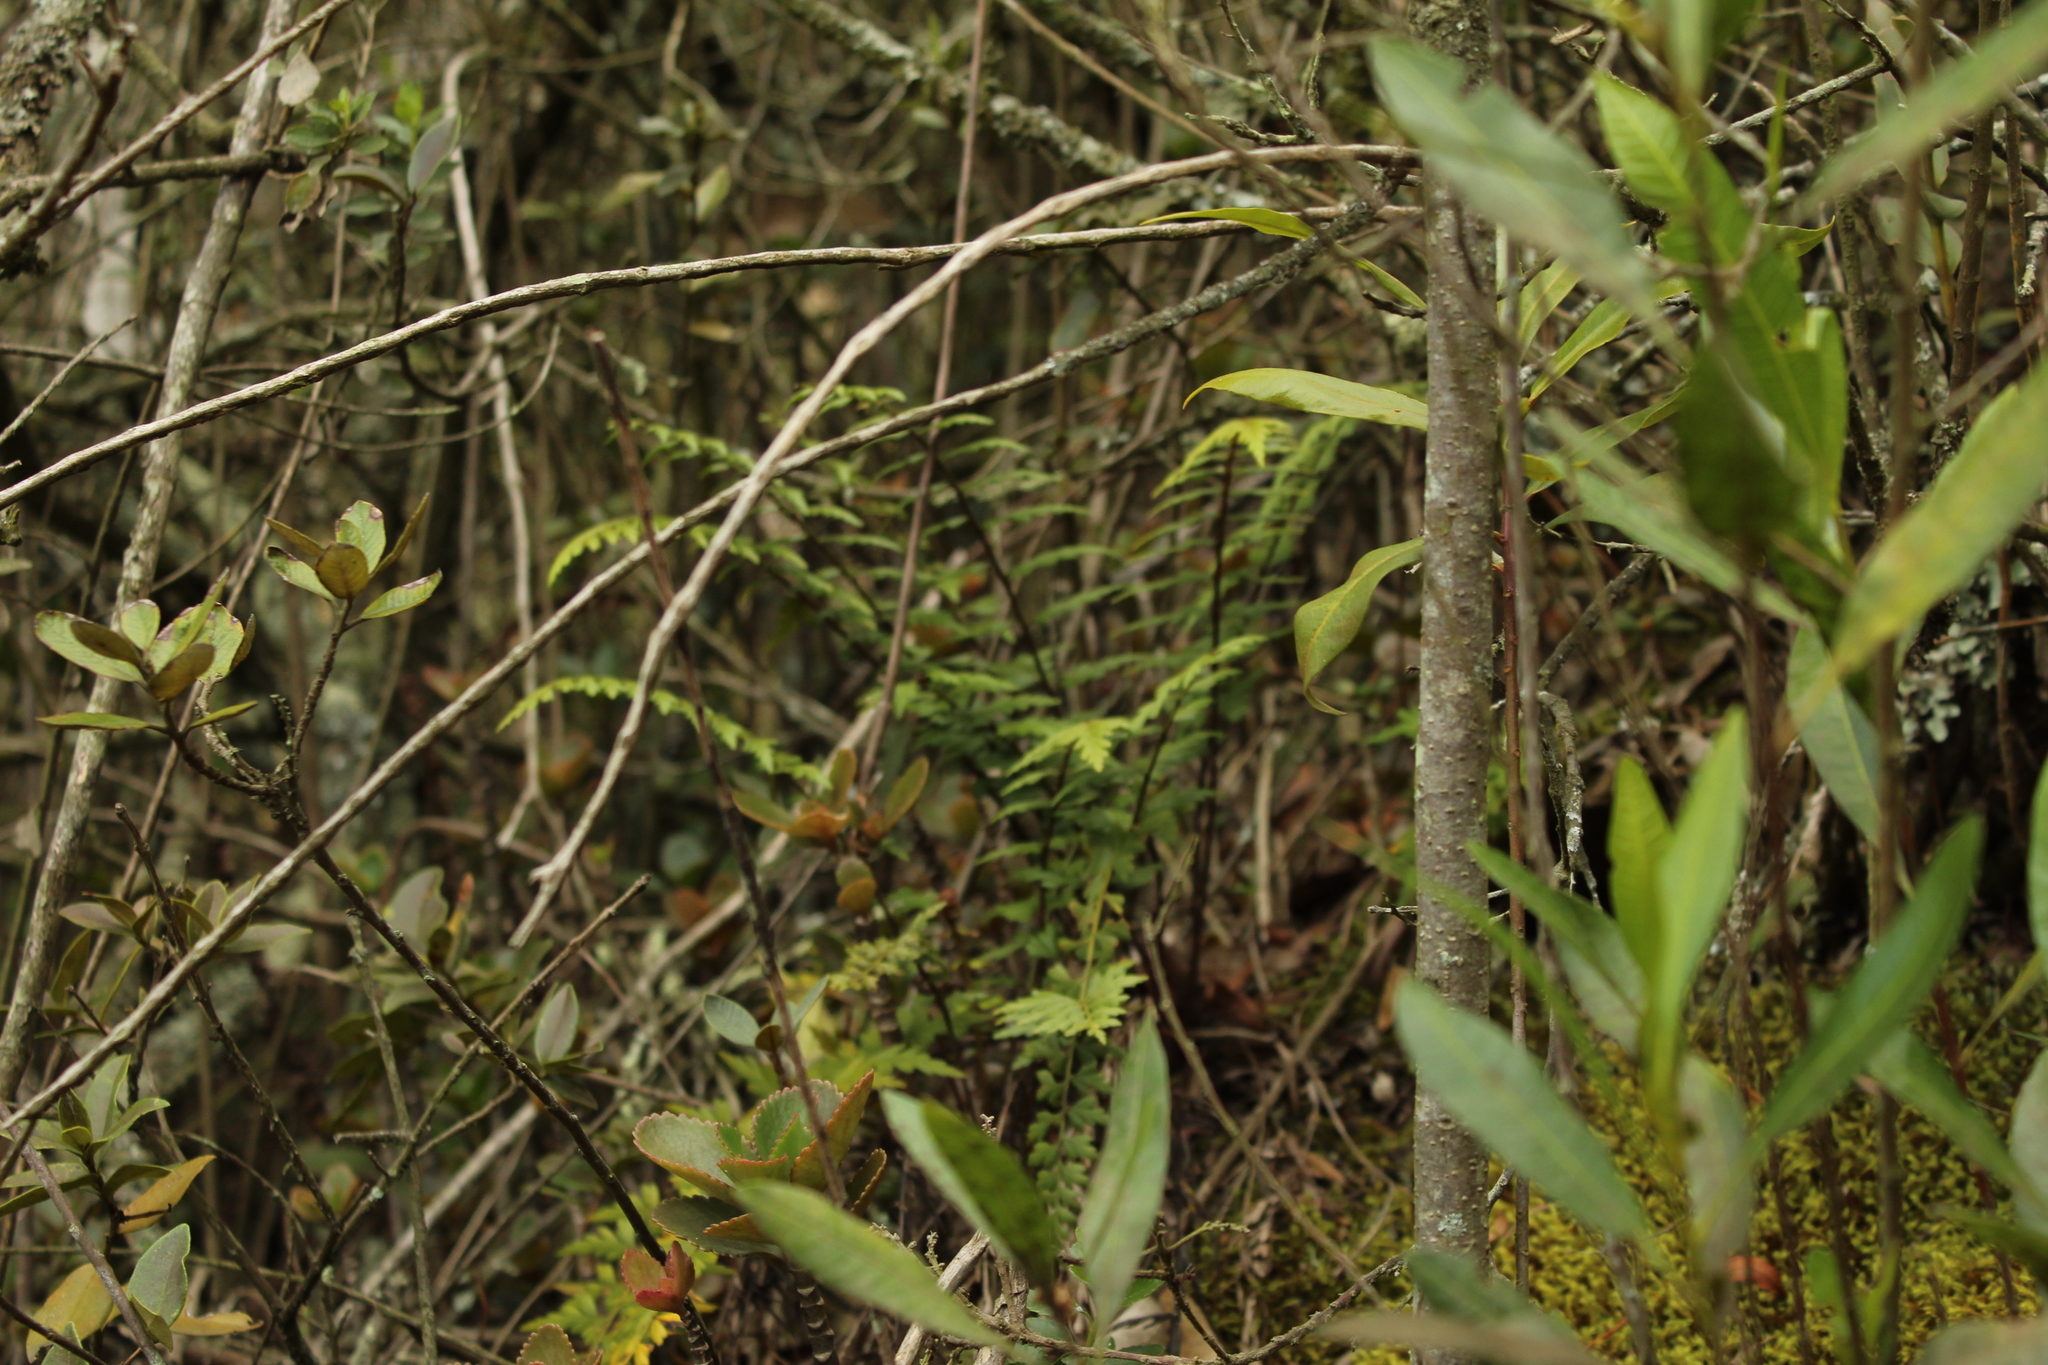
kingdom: Plantae
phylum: Tracheophyta
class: Polypodiopsida
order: Polypodiales
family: Aspleniaceae
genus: Asplenium
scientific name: Asplenium praemorsum
